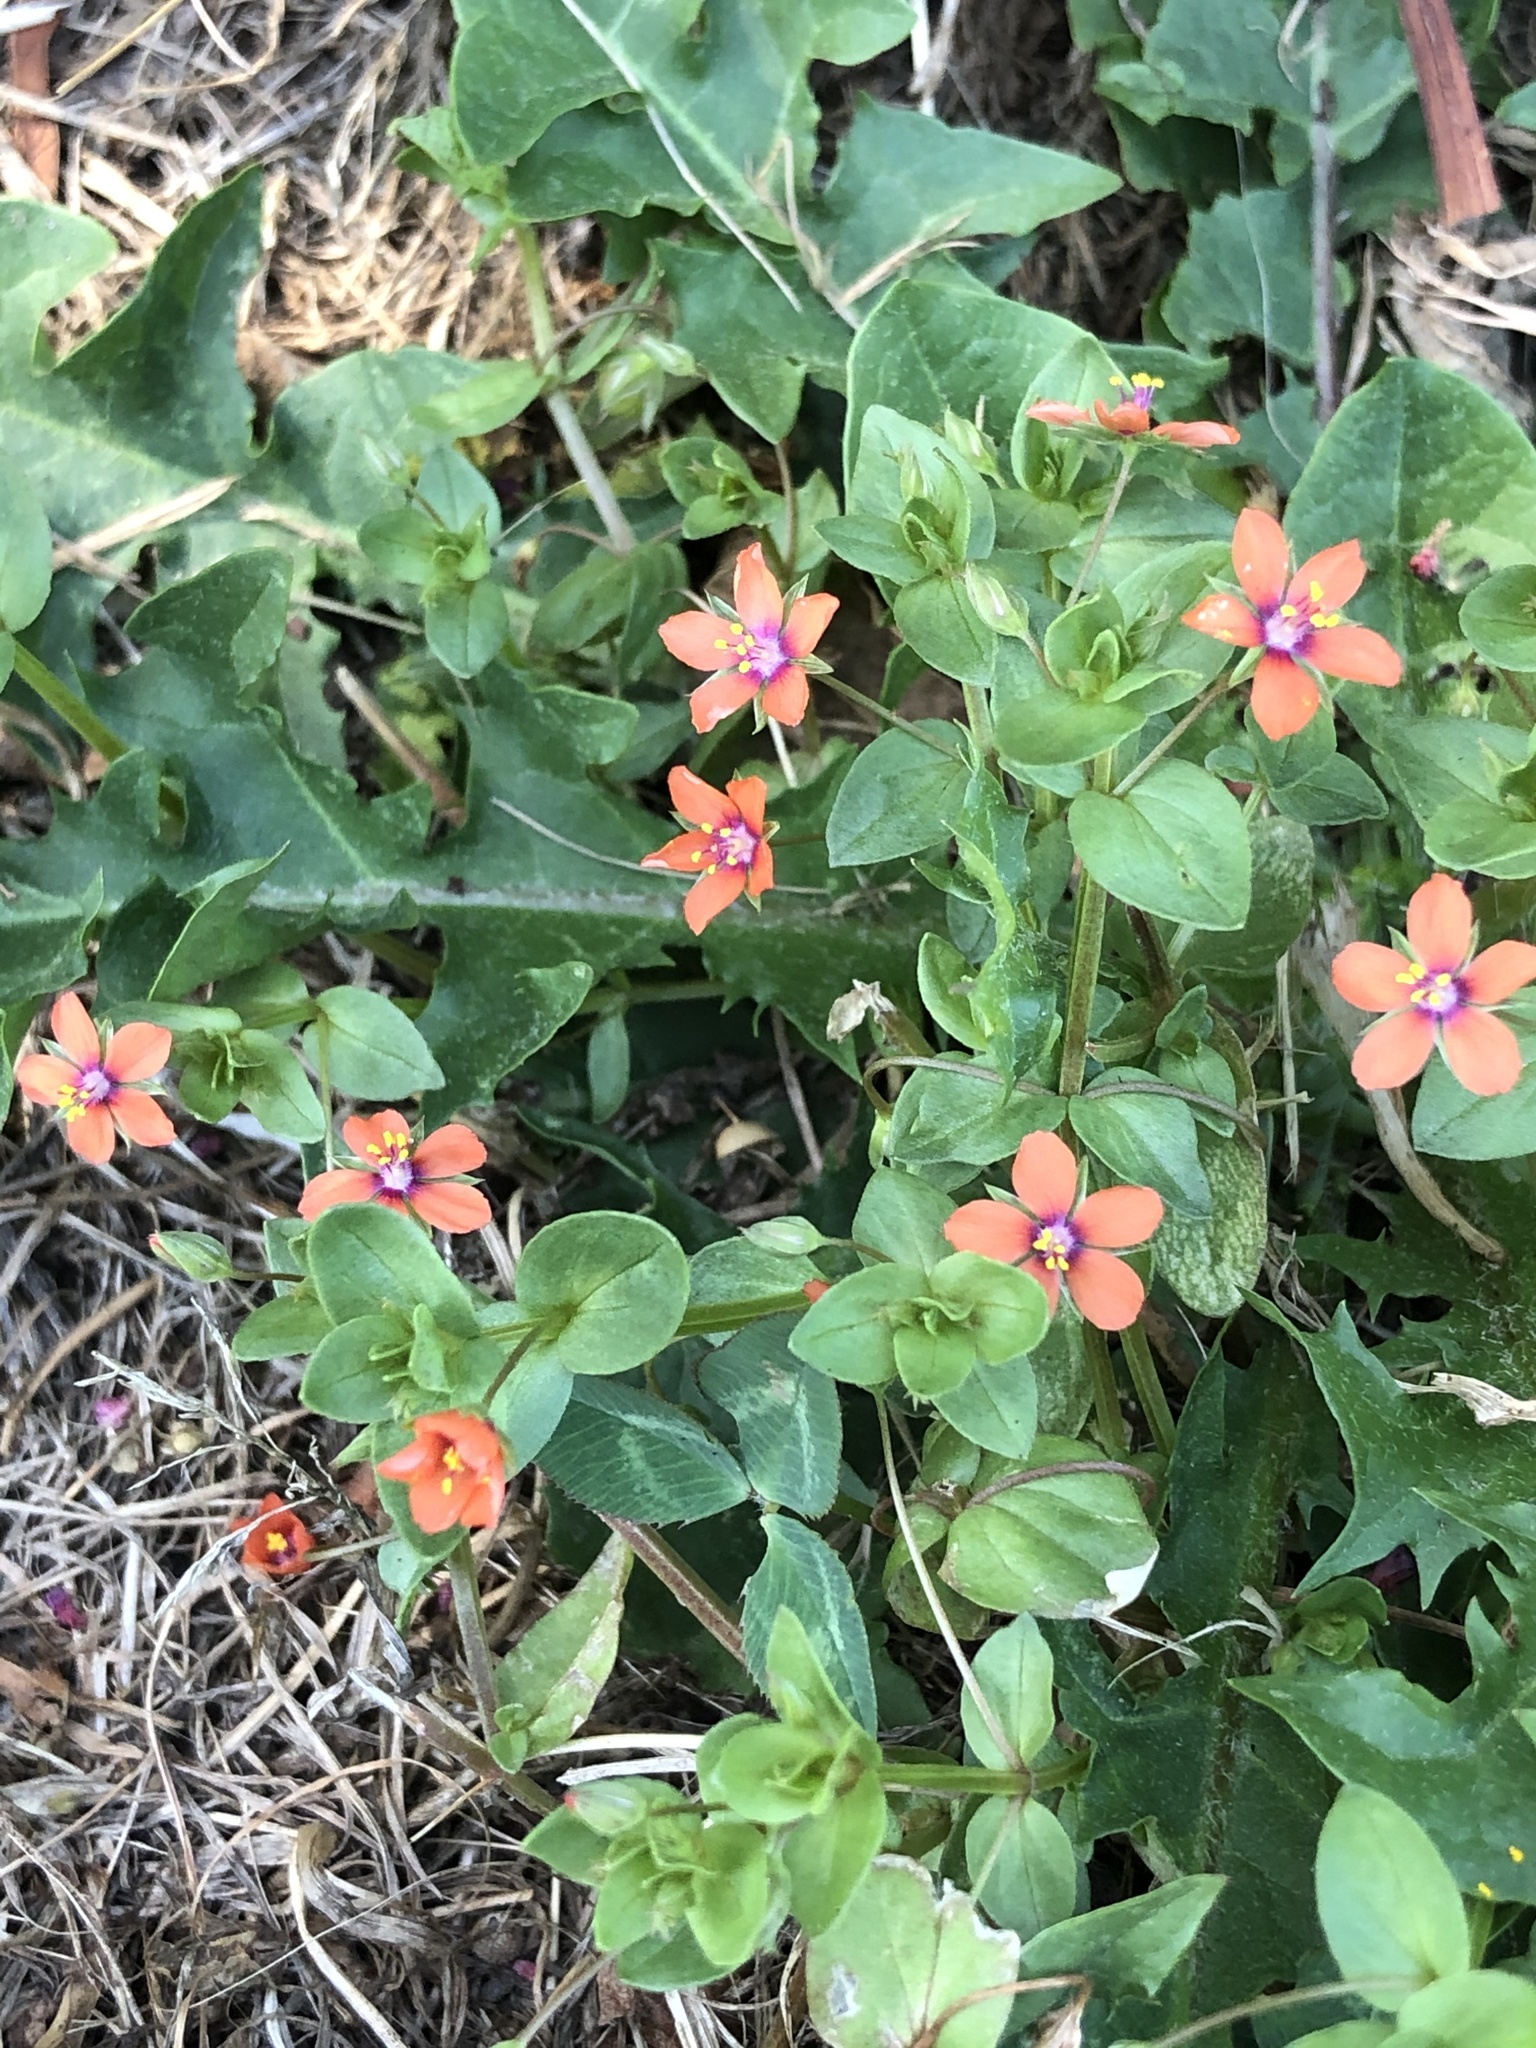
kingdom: Plantae
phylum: Tracheophyta
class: Magnoliopsida
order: Ericales
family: Primulaceae
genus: Lysimachia
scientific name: Lysimachia arvensis
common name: Scarlet pimpernel
